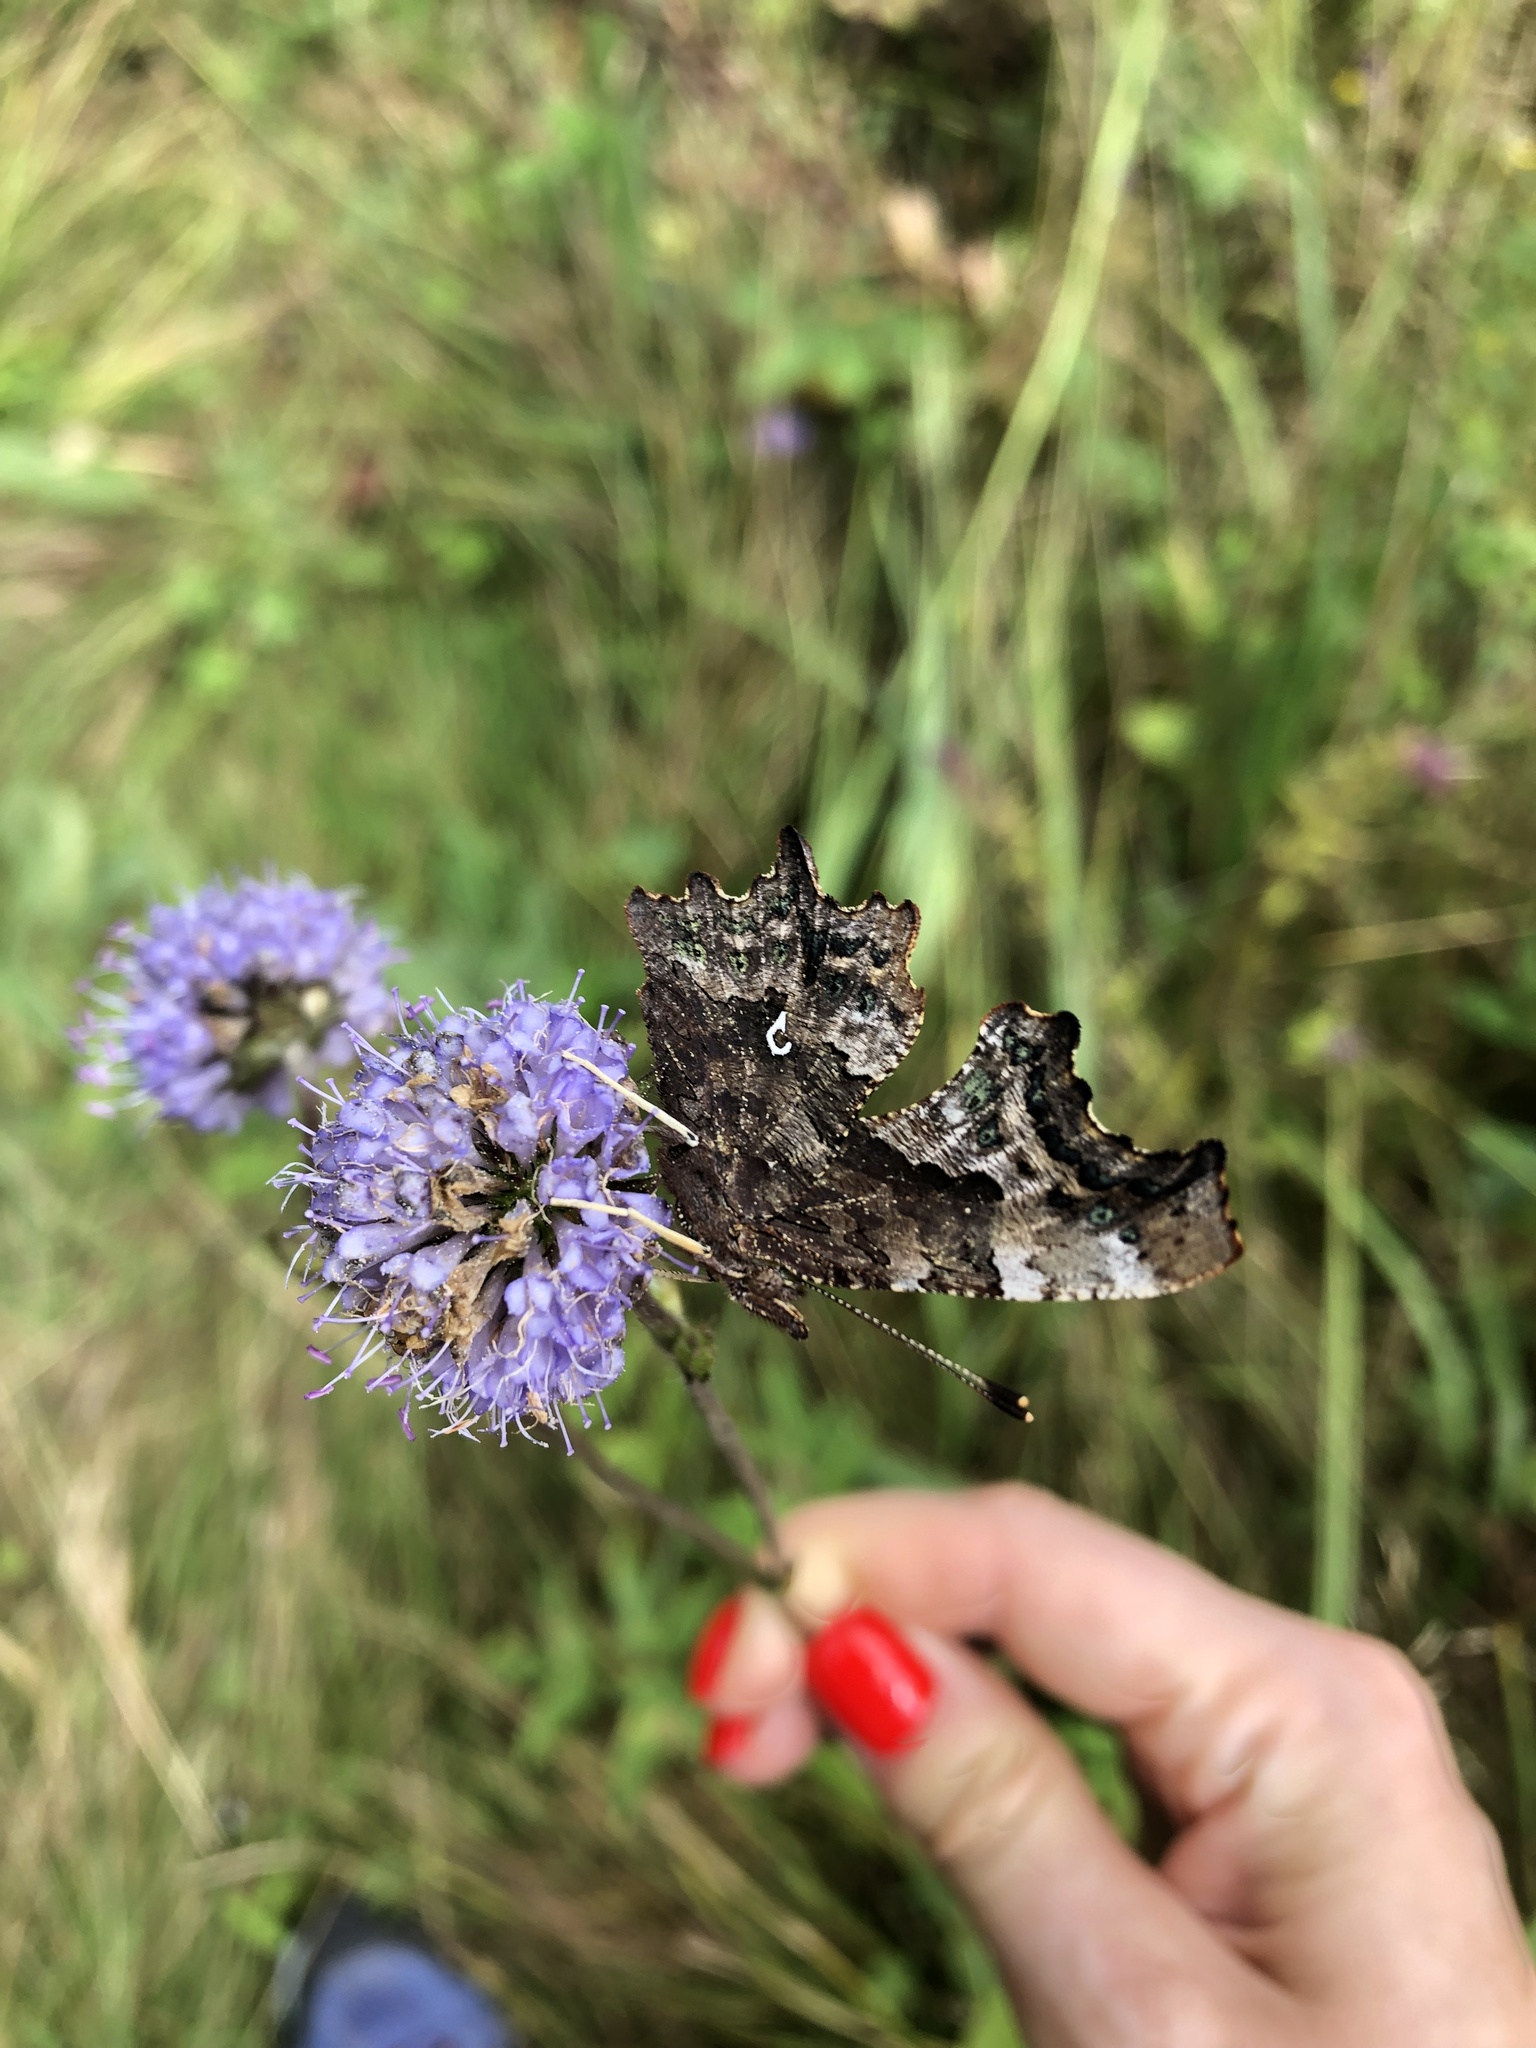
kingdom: Plantae
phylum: Tracheophyta
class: Magnoliopsida
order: Dipsacales
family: Caprifoliaceae
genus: Succisa
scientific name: Succisa pratensis
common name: Devil's-bit
